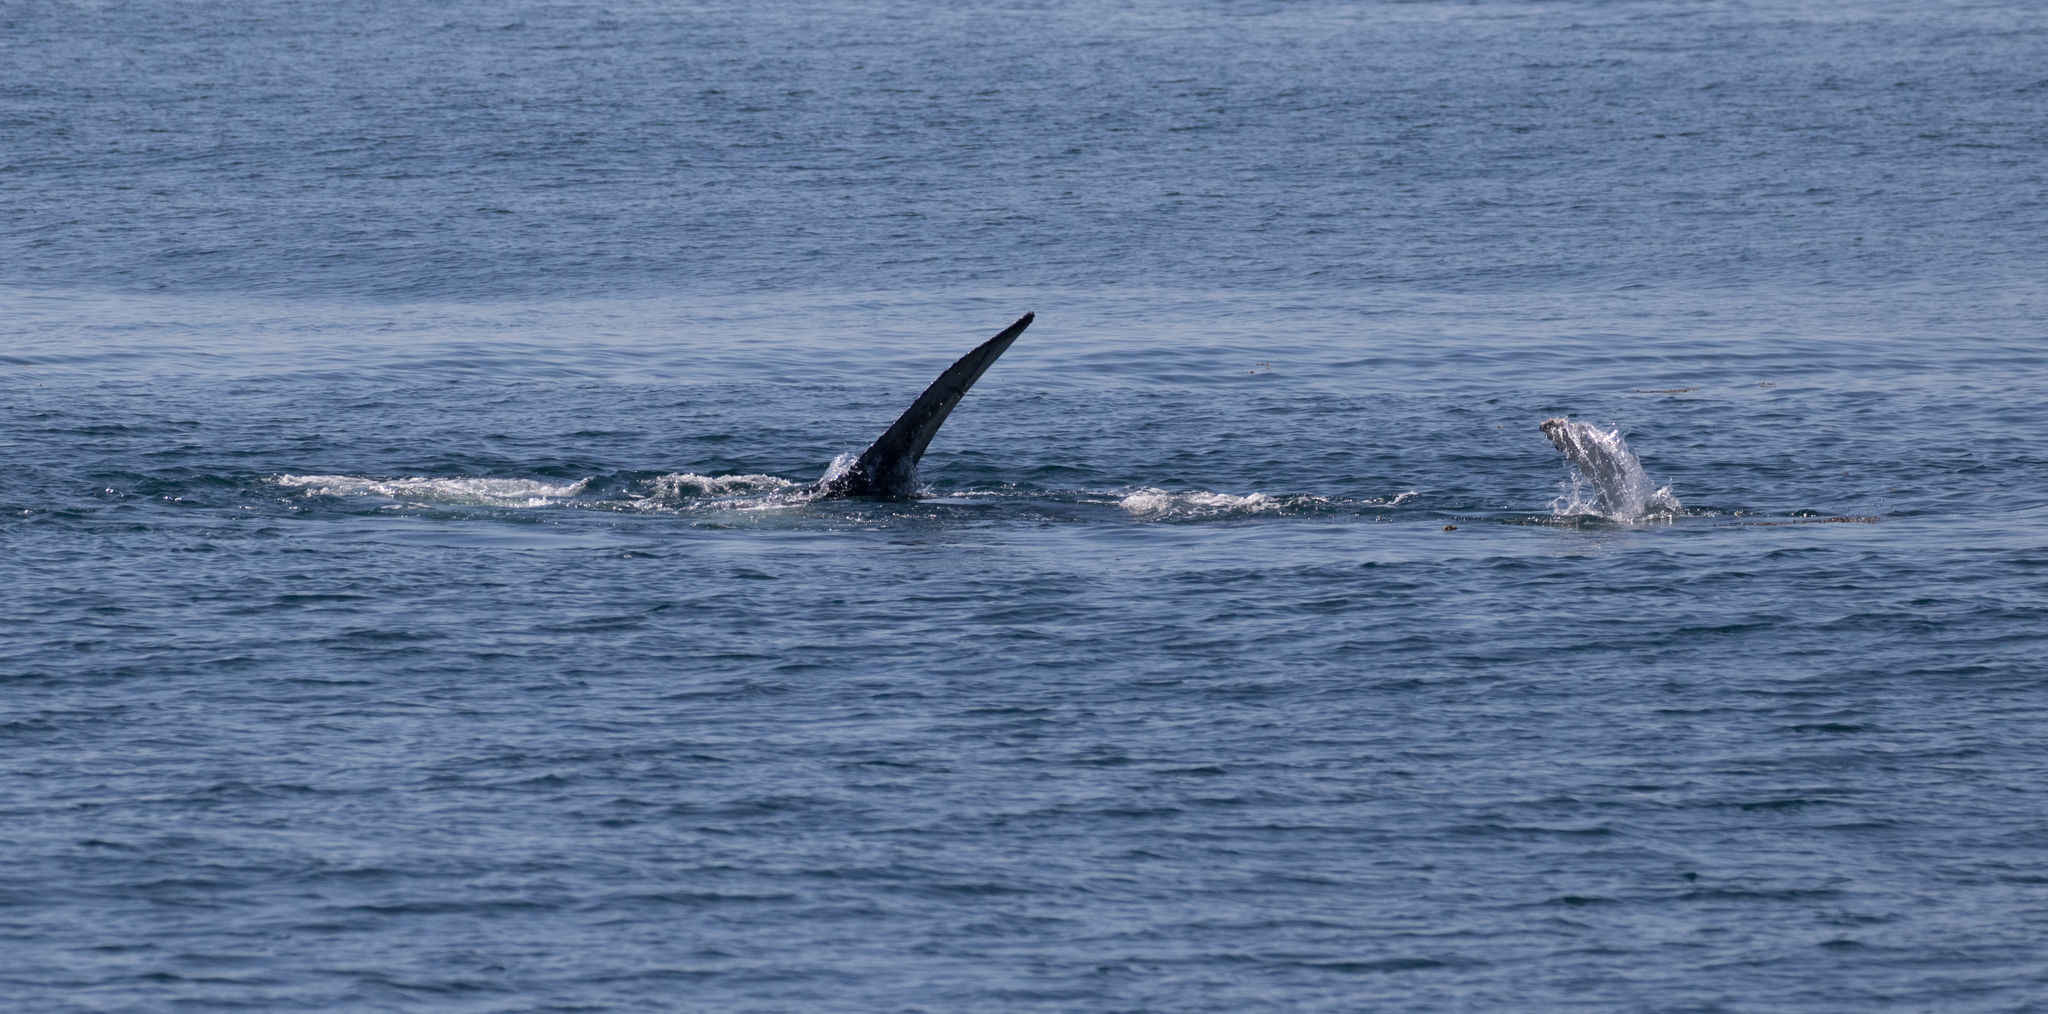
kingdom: Animalia
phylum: Chordata
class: Mammalia
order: Cetacea
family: Balaenopteridae
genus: Megaptera
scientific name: Megaptera novaeangliae
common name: Humpback whale
